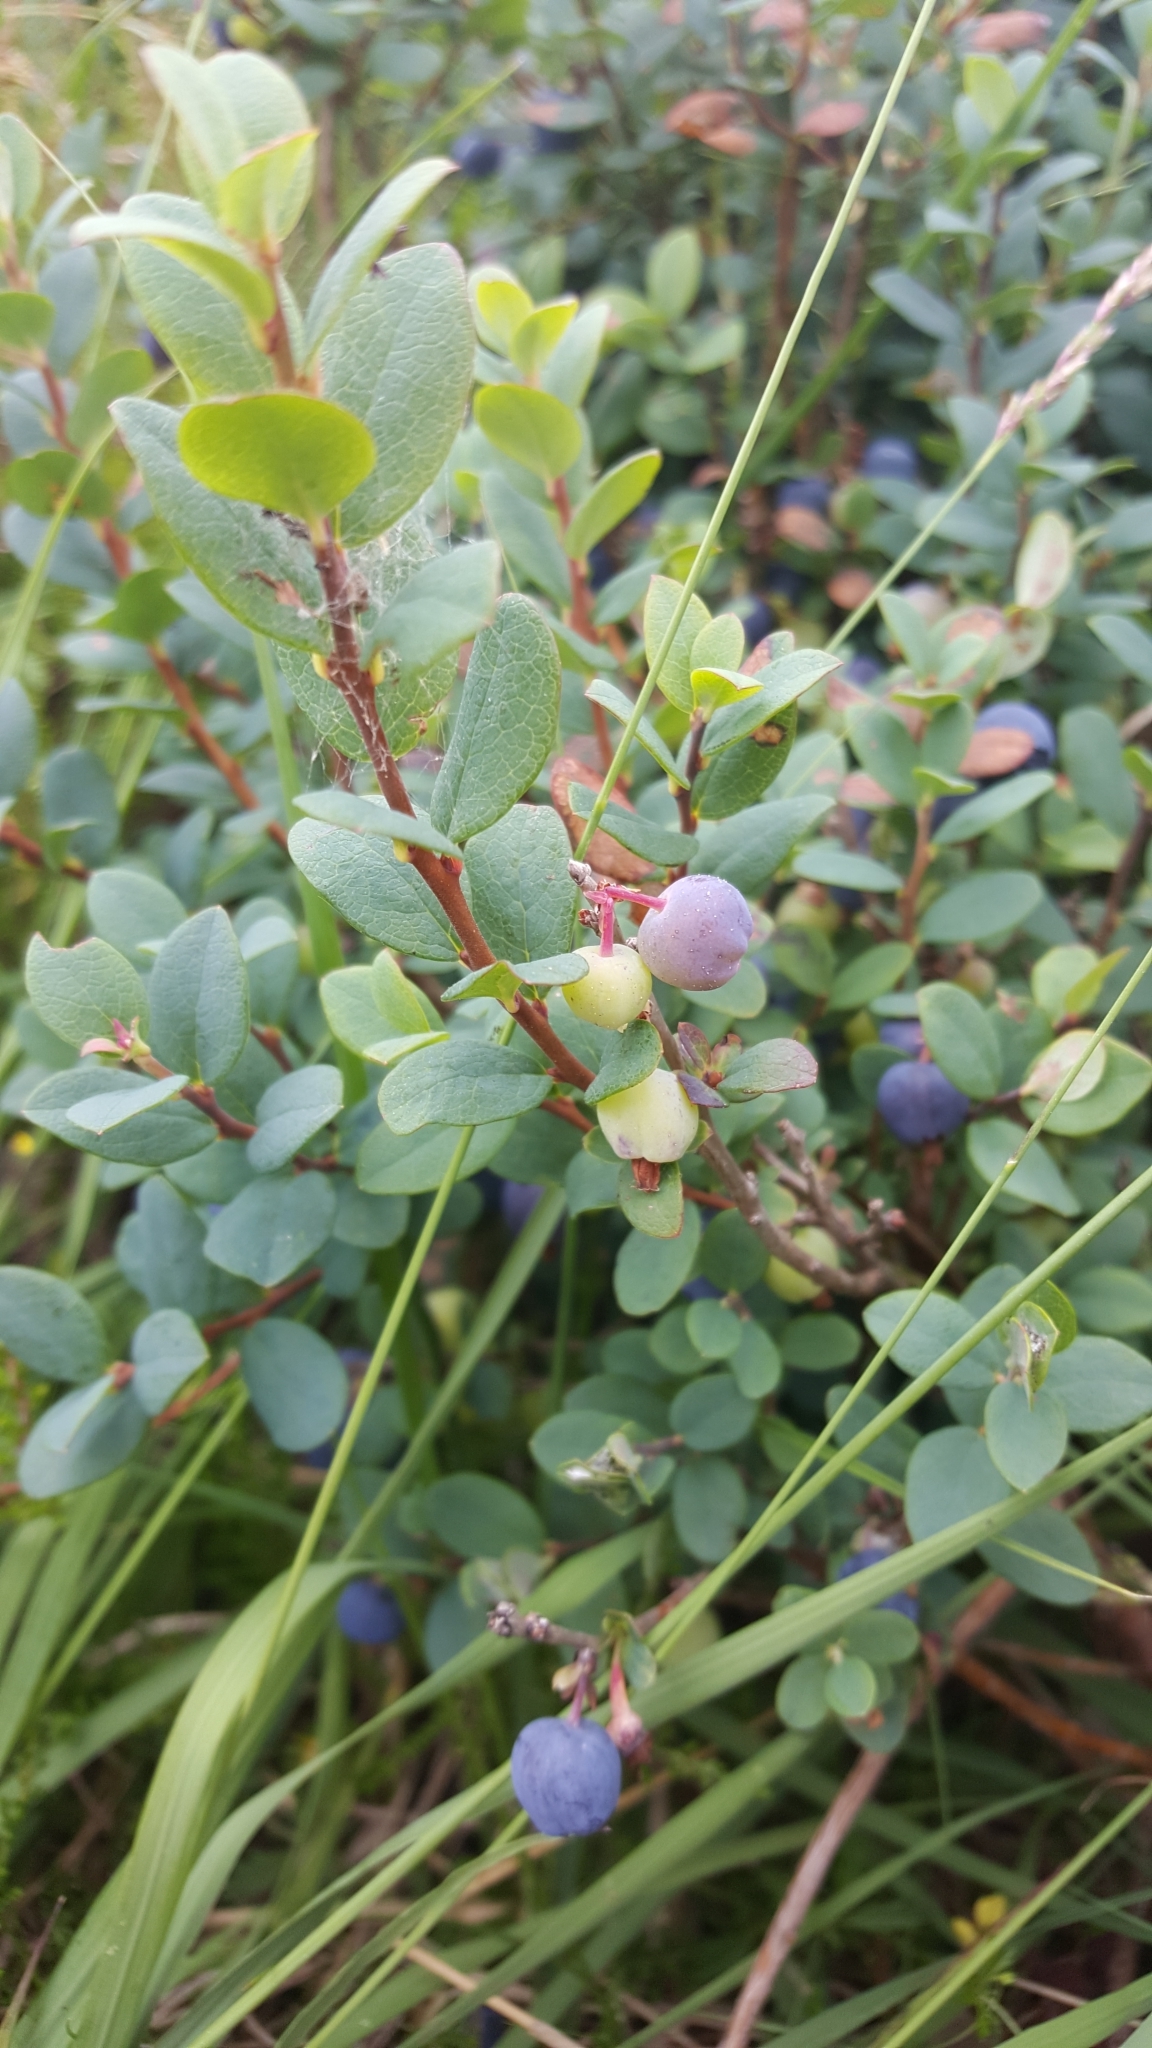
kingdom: Plantae
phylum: Tracheophyta
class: Magnoliopsida
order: Ericales
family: Ericaceae
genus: Vaccinium
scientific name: Vaccinium uliginosum
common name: Bog bilberry
